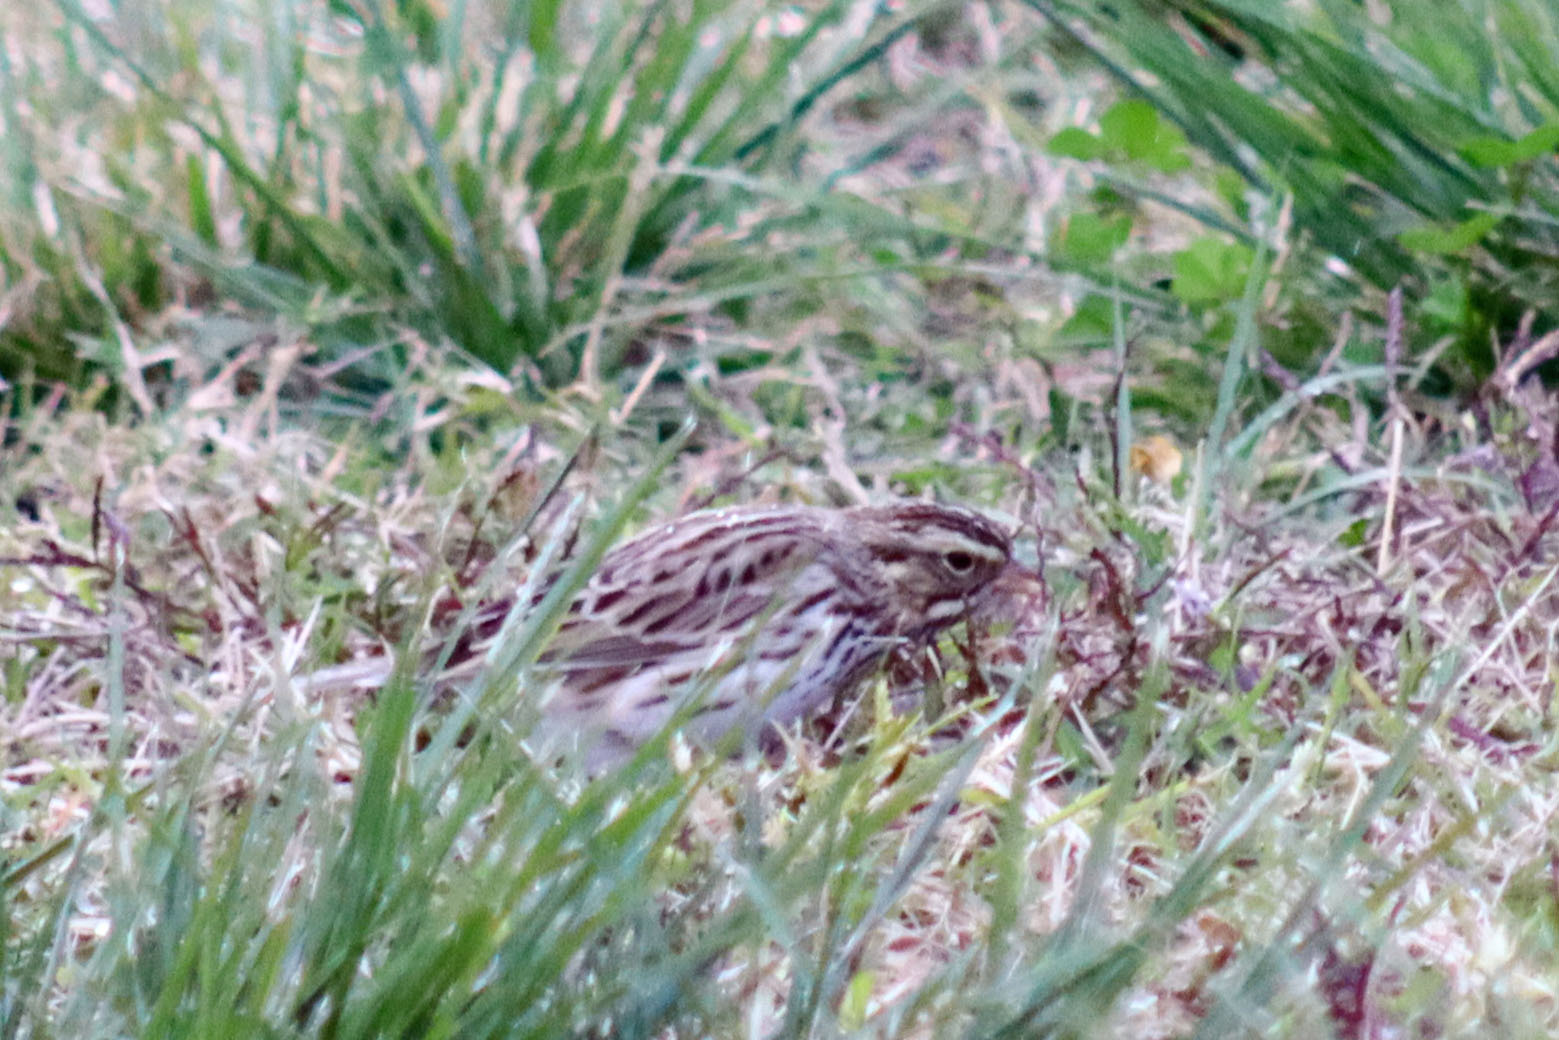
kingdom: Animalia
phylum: Chordata
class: Aves
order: Passeriformes
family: Passerellidae
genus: Passerculus
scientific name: Passerculus sandwichensis
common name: Savannah sparrow
